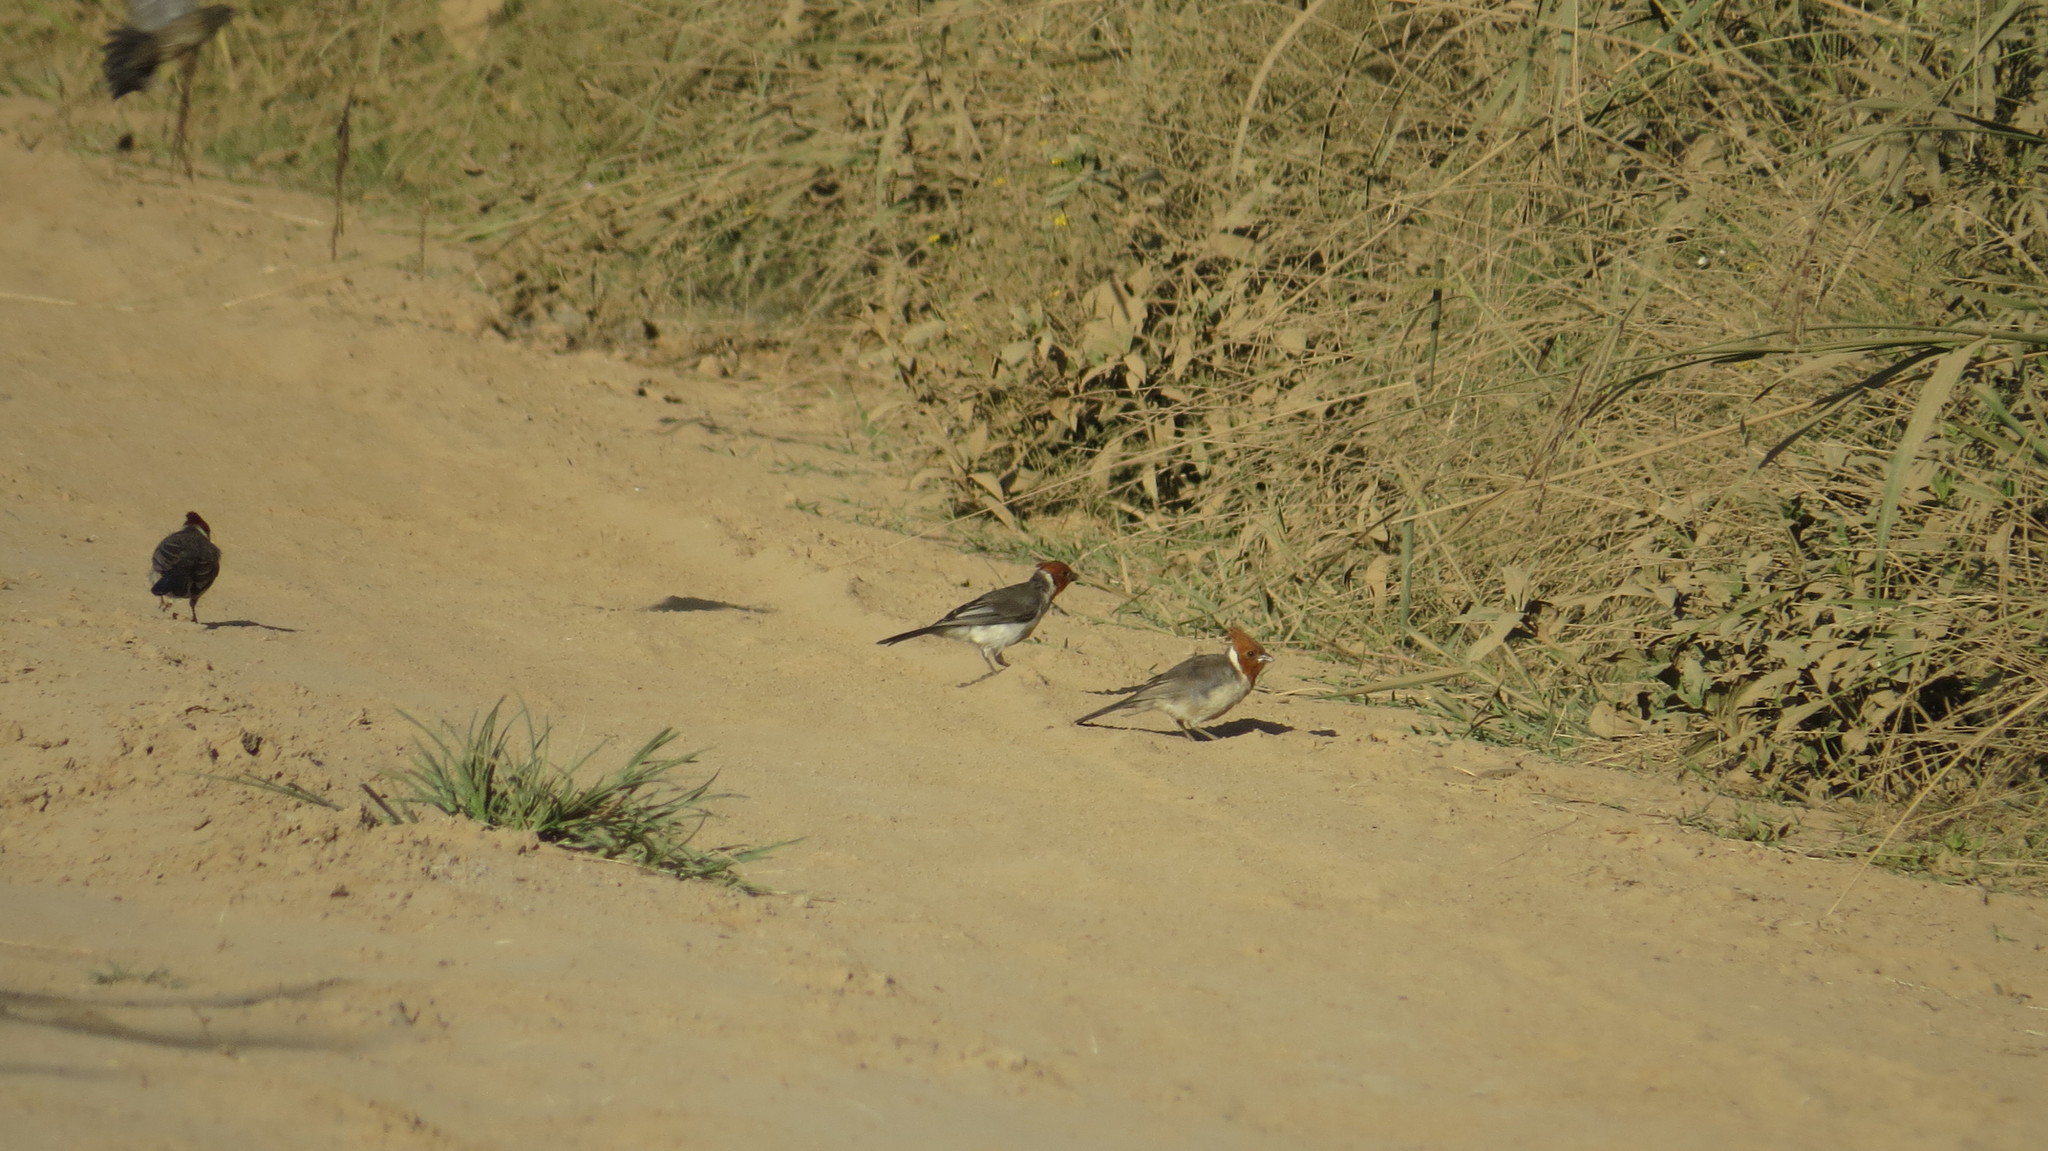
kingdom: Animalia
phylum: Chordata
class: Aves
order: Passeriformes
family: Thraupidae
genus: Paroaria
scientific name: Paroaria coronata
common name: Red-crested cardinal
